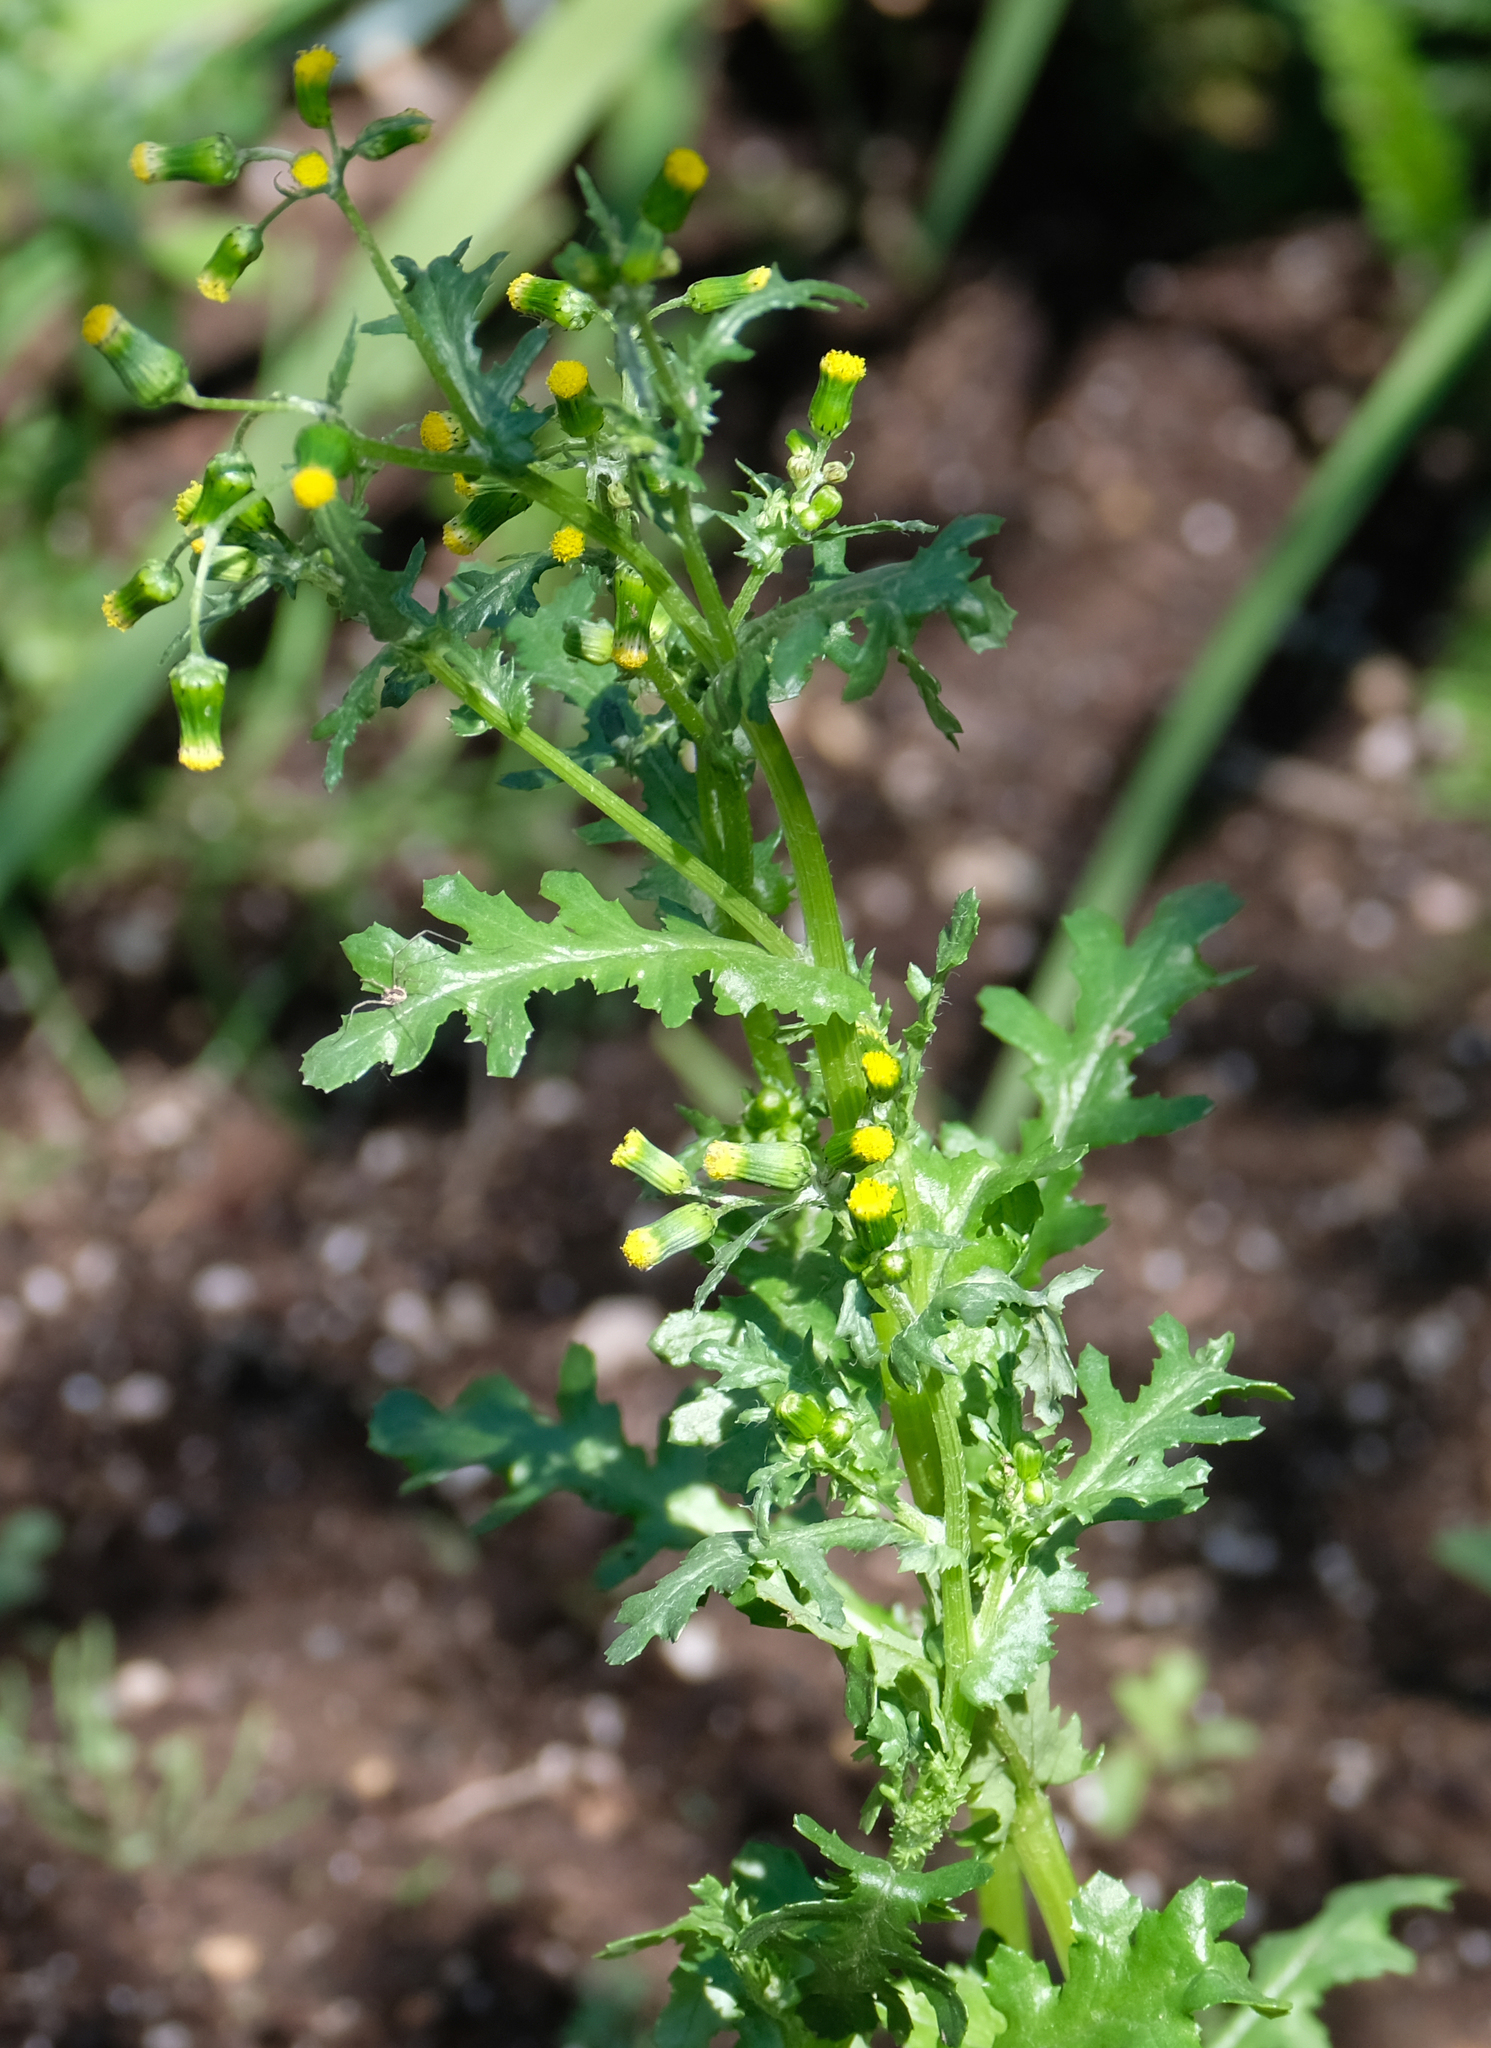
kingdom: Plantae
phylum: Tracheophyta
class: Magnoliopsida
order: Asterales
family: Asteraceae
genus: Senecio
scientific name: Senecio vulgaris
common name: Old-man-in-the-spring
